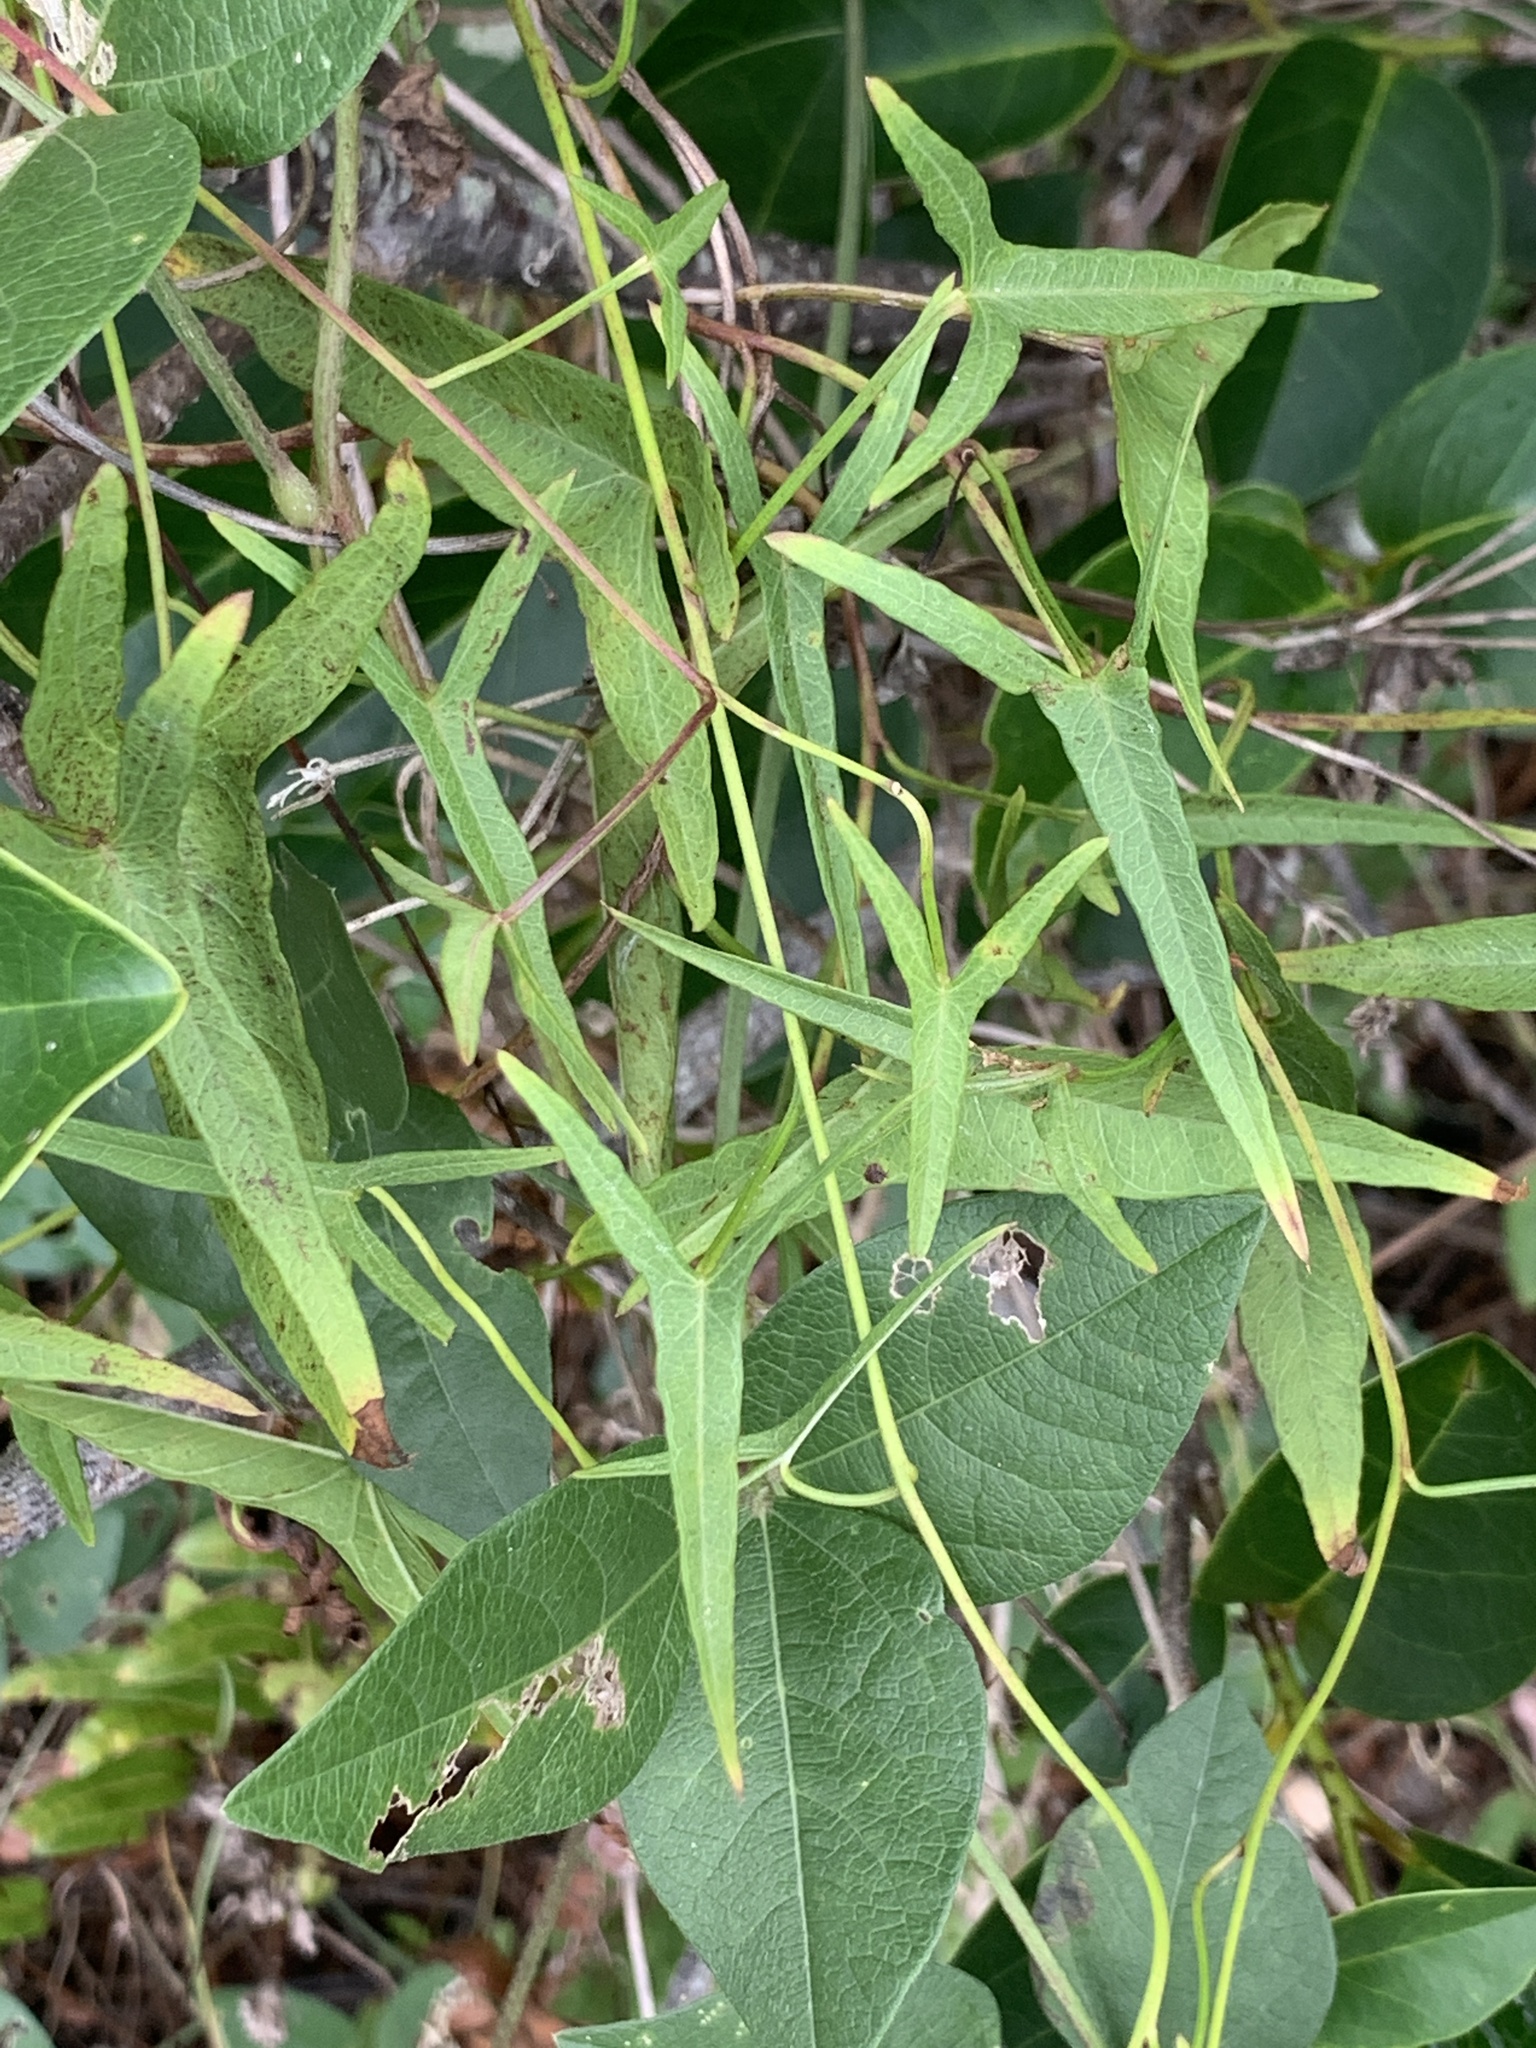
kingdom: Plantae
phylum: Tracheophyta
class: Magnoliopsida
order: Solanales
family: Convolvulaceae
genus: Ipomoea
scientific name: Ipomoea sagittata
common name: Saltmarsh morning glory
